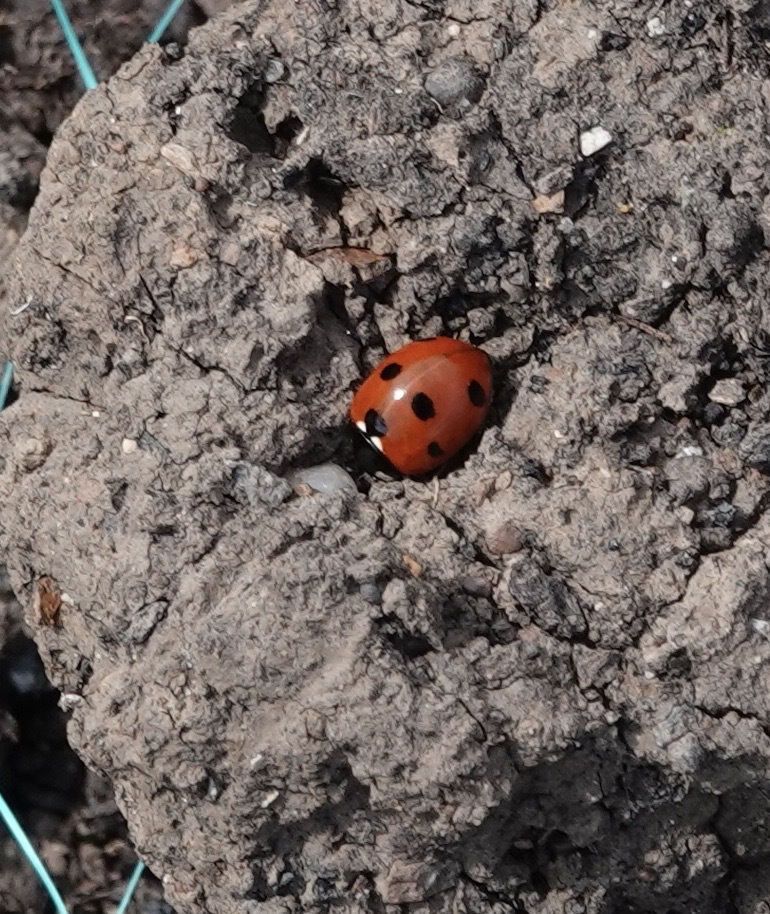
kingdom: Animalia
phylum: Arthropoda
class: Insecta
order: Coleoptera
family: Coccinellidae
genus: Coccinella
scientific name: Coccinella septempunctata
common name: Sevenspotted lady beetle
